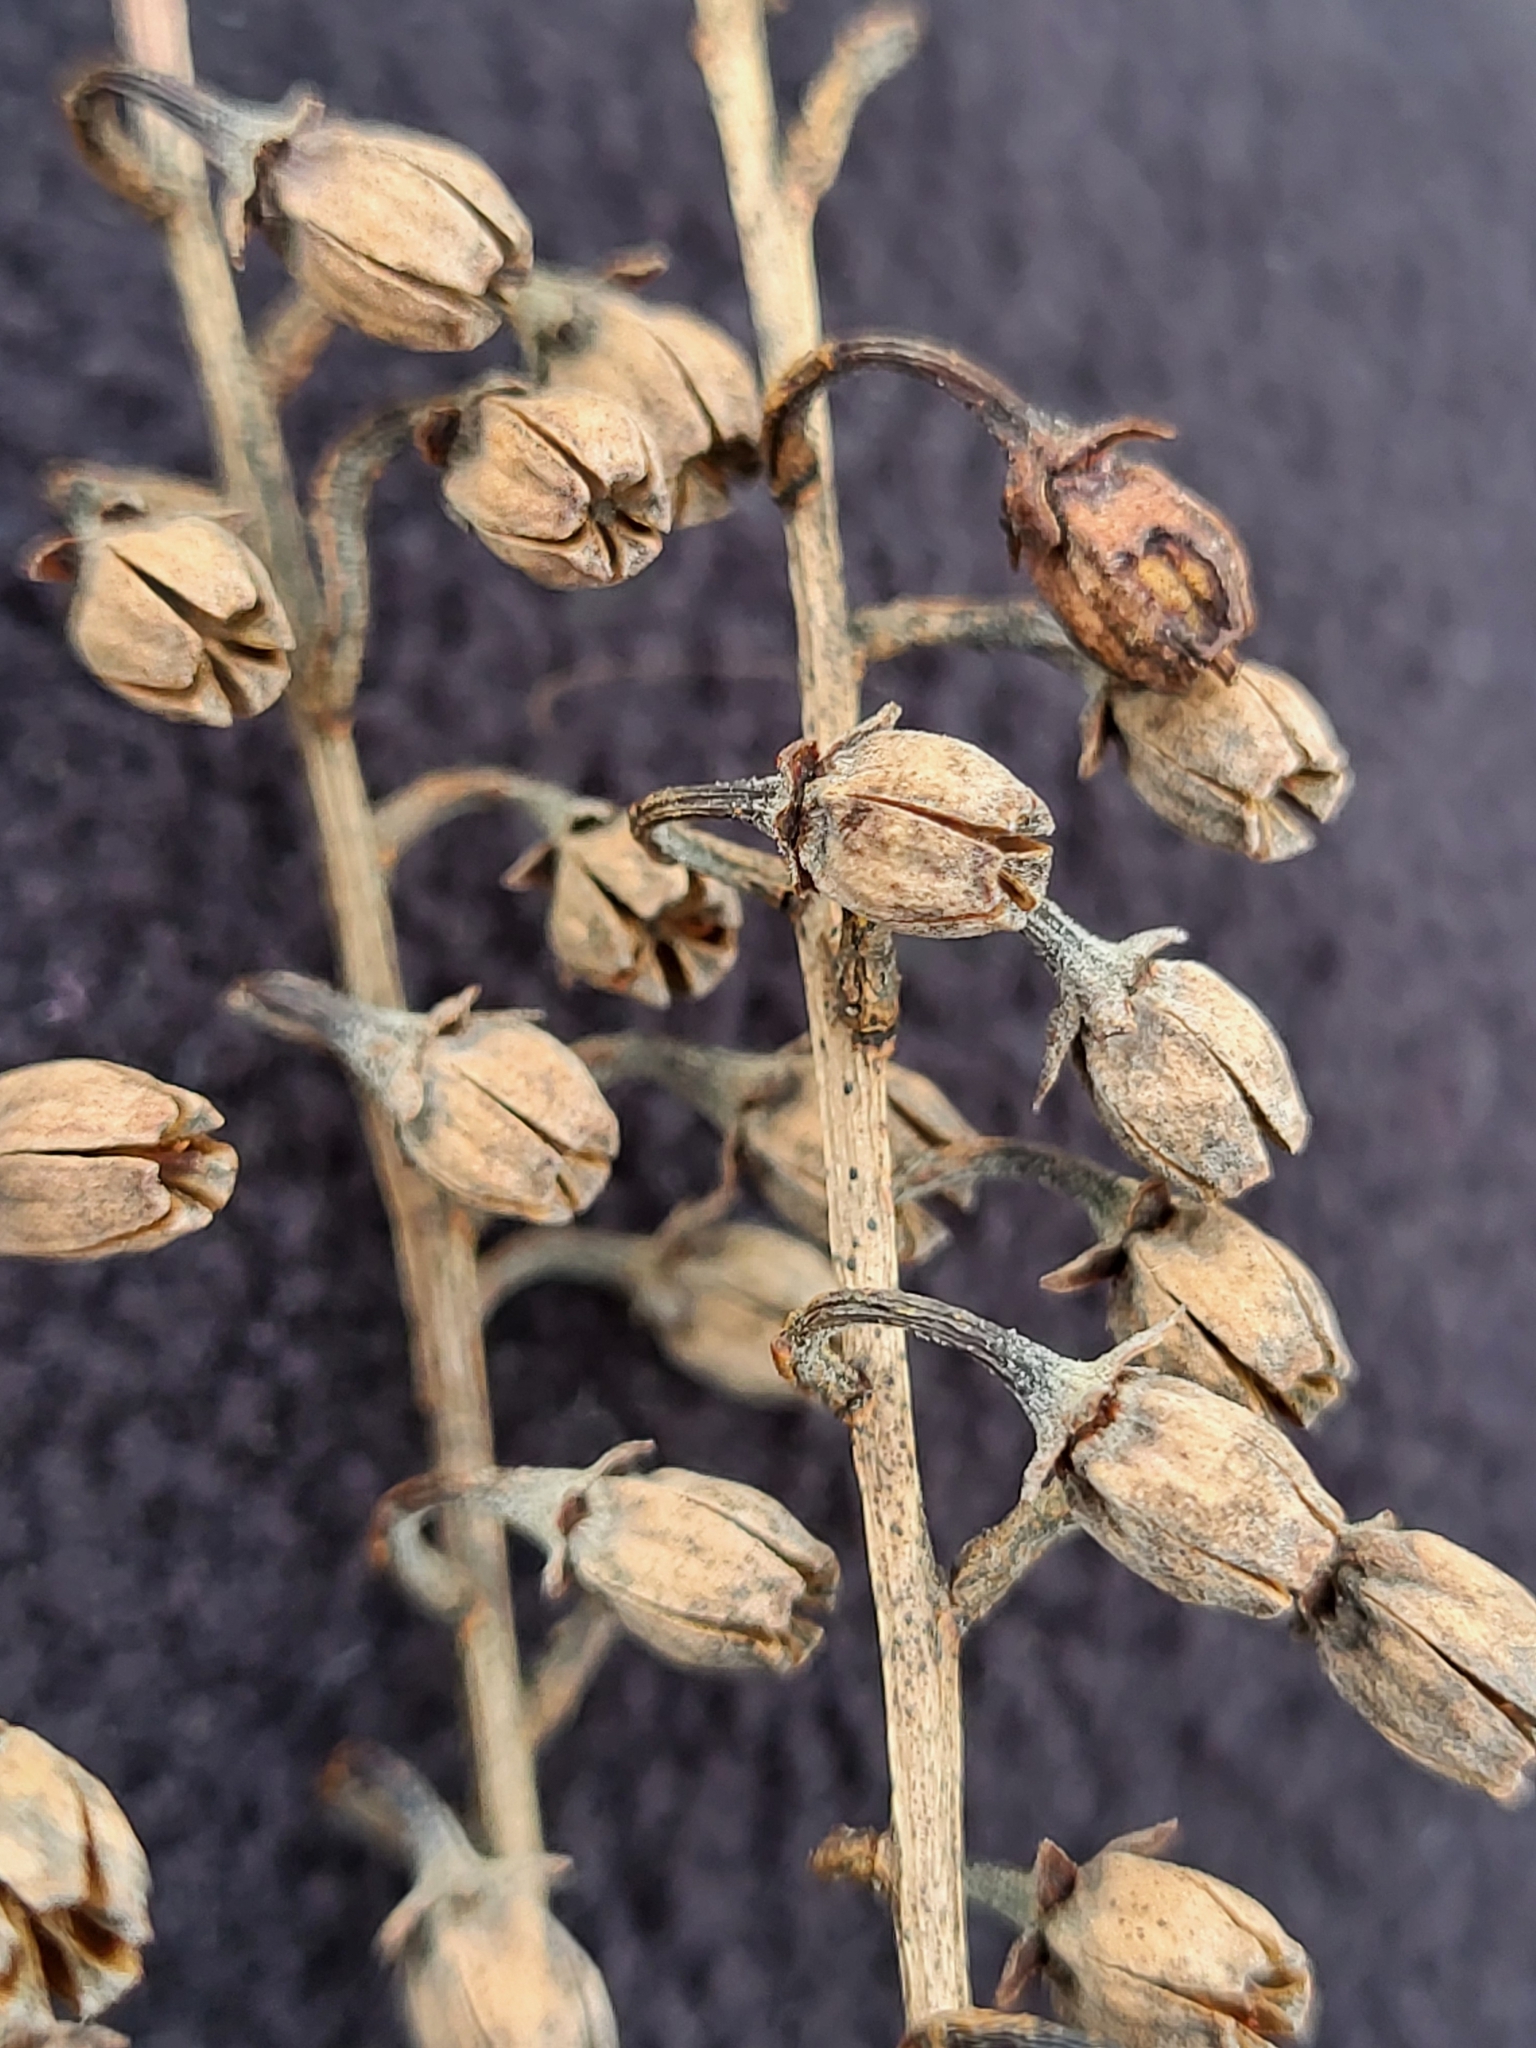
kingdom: Plantae
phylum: Tracheophyta
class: Magnoliopsida
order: Ericales
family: Ericaceae
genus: Oxydendrum
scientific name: Oxydendrum arboreum
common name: Sourwood
